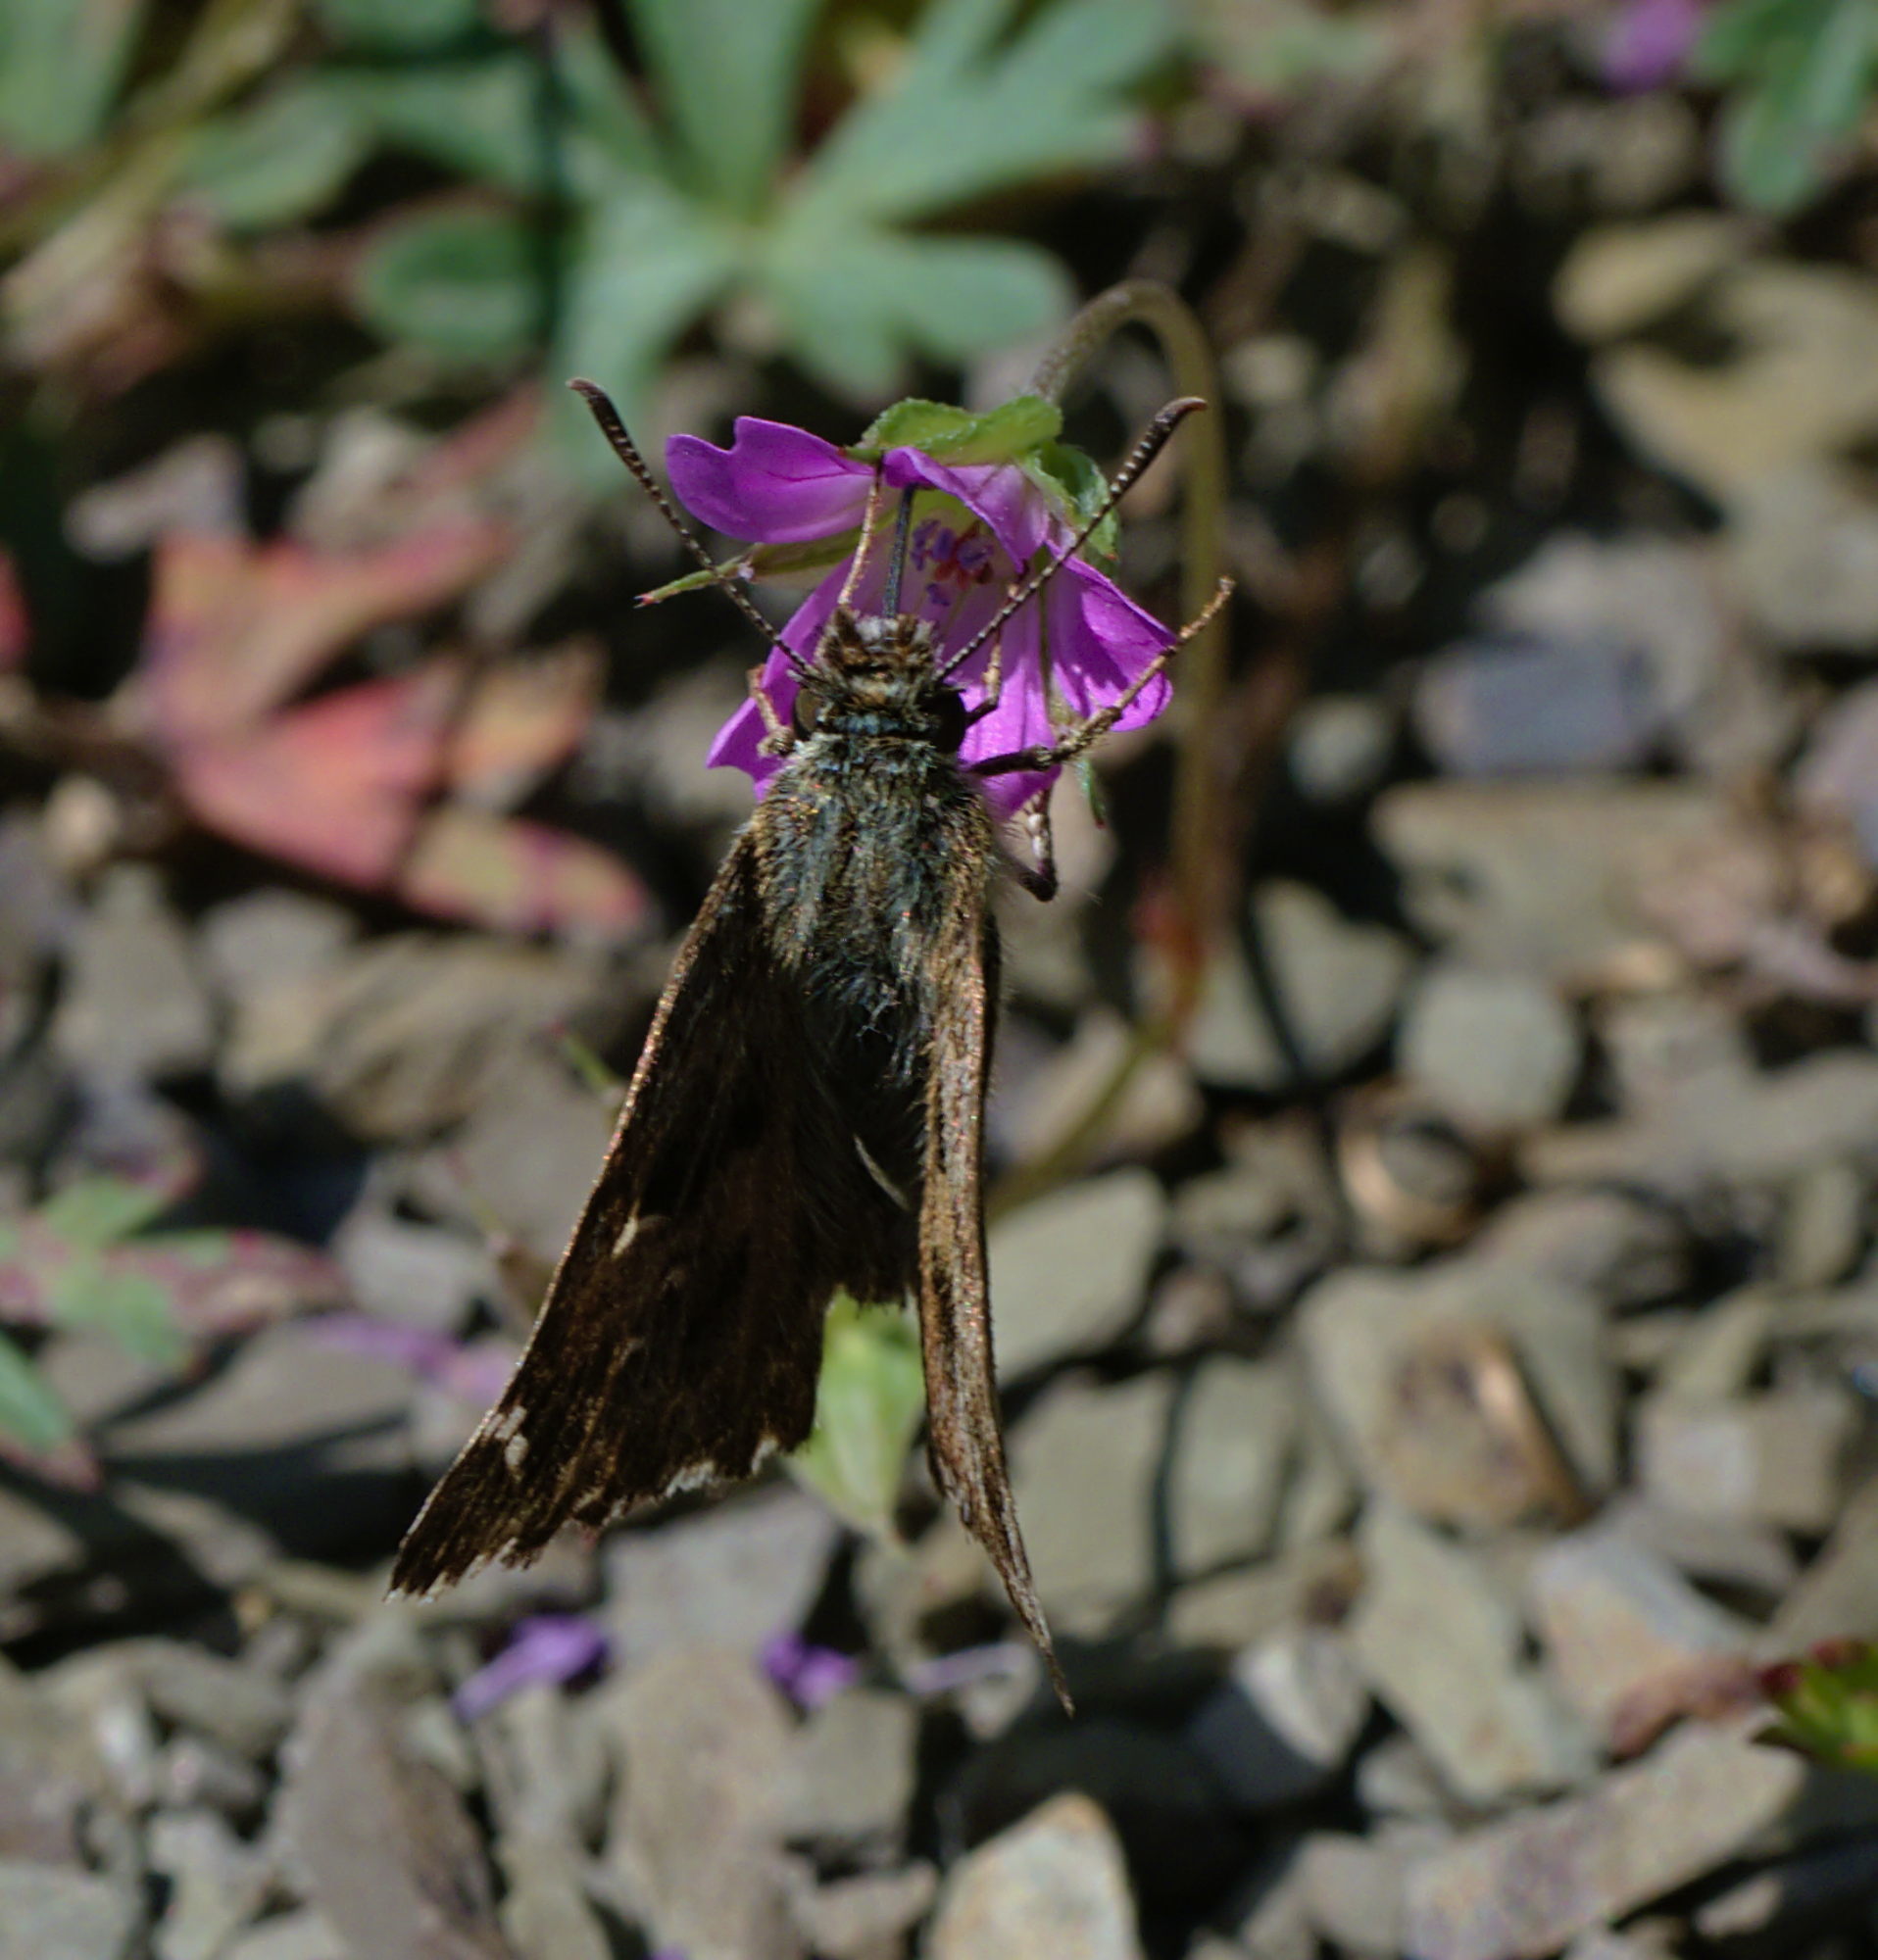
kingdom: Animalia
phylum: Arthropoda
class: Insecta
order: Lepidoptera
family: Hesperiidae
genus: Carcharodus
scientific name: Carcharodus alceae
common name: Mallow skipper
